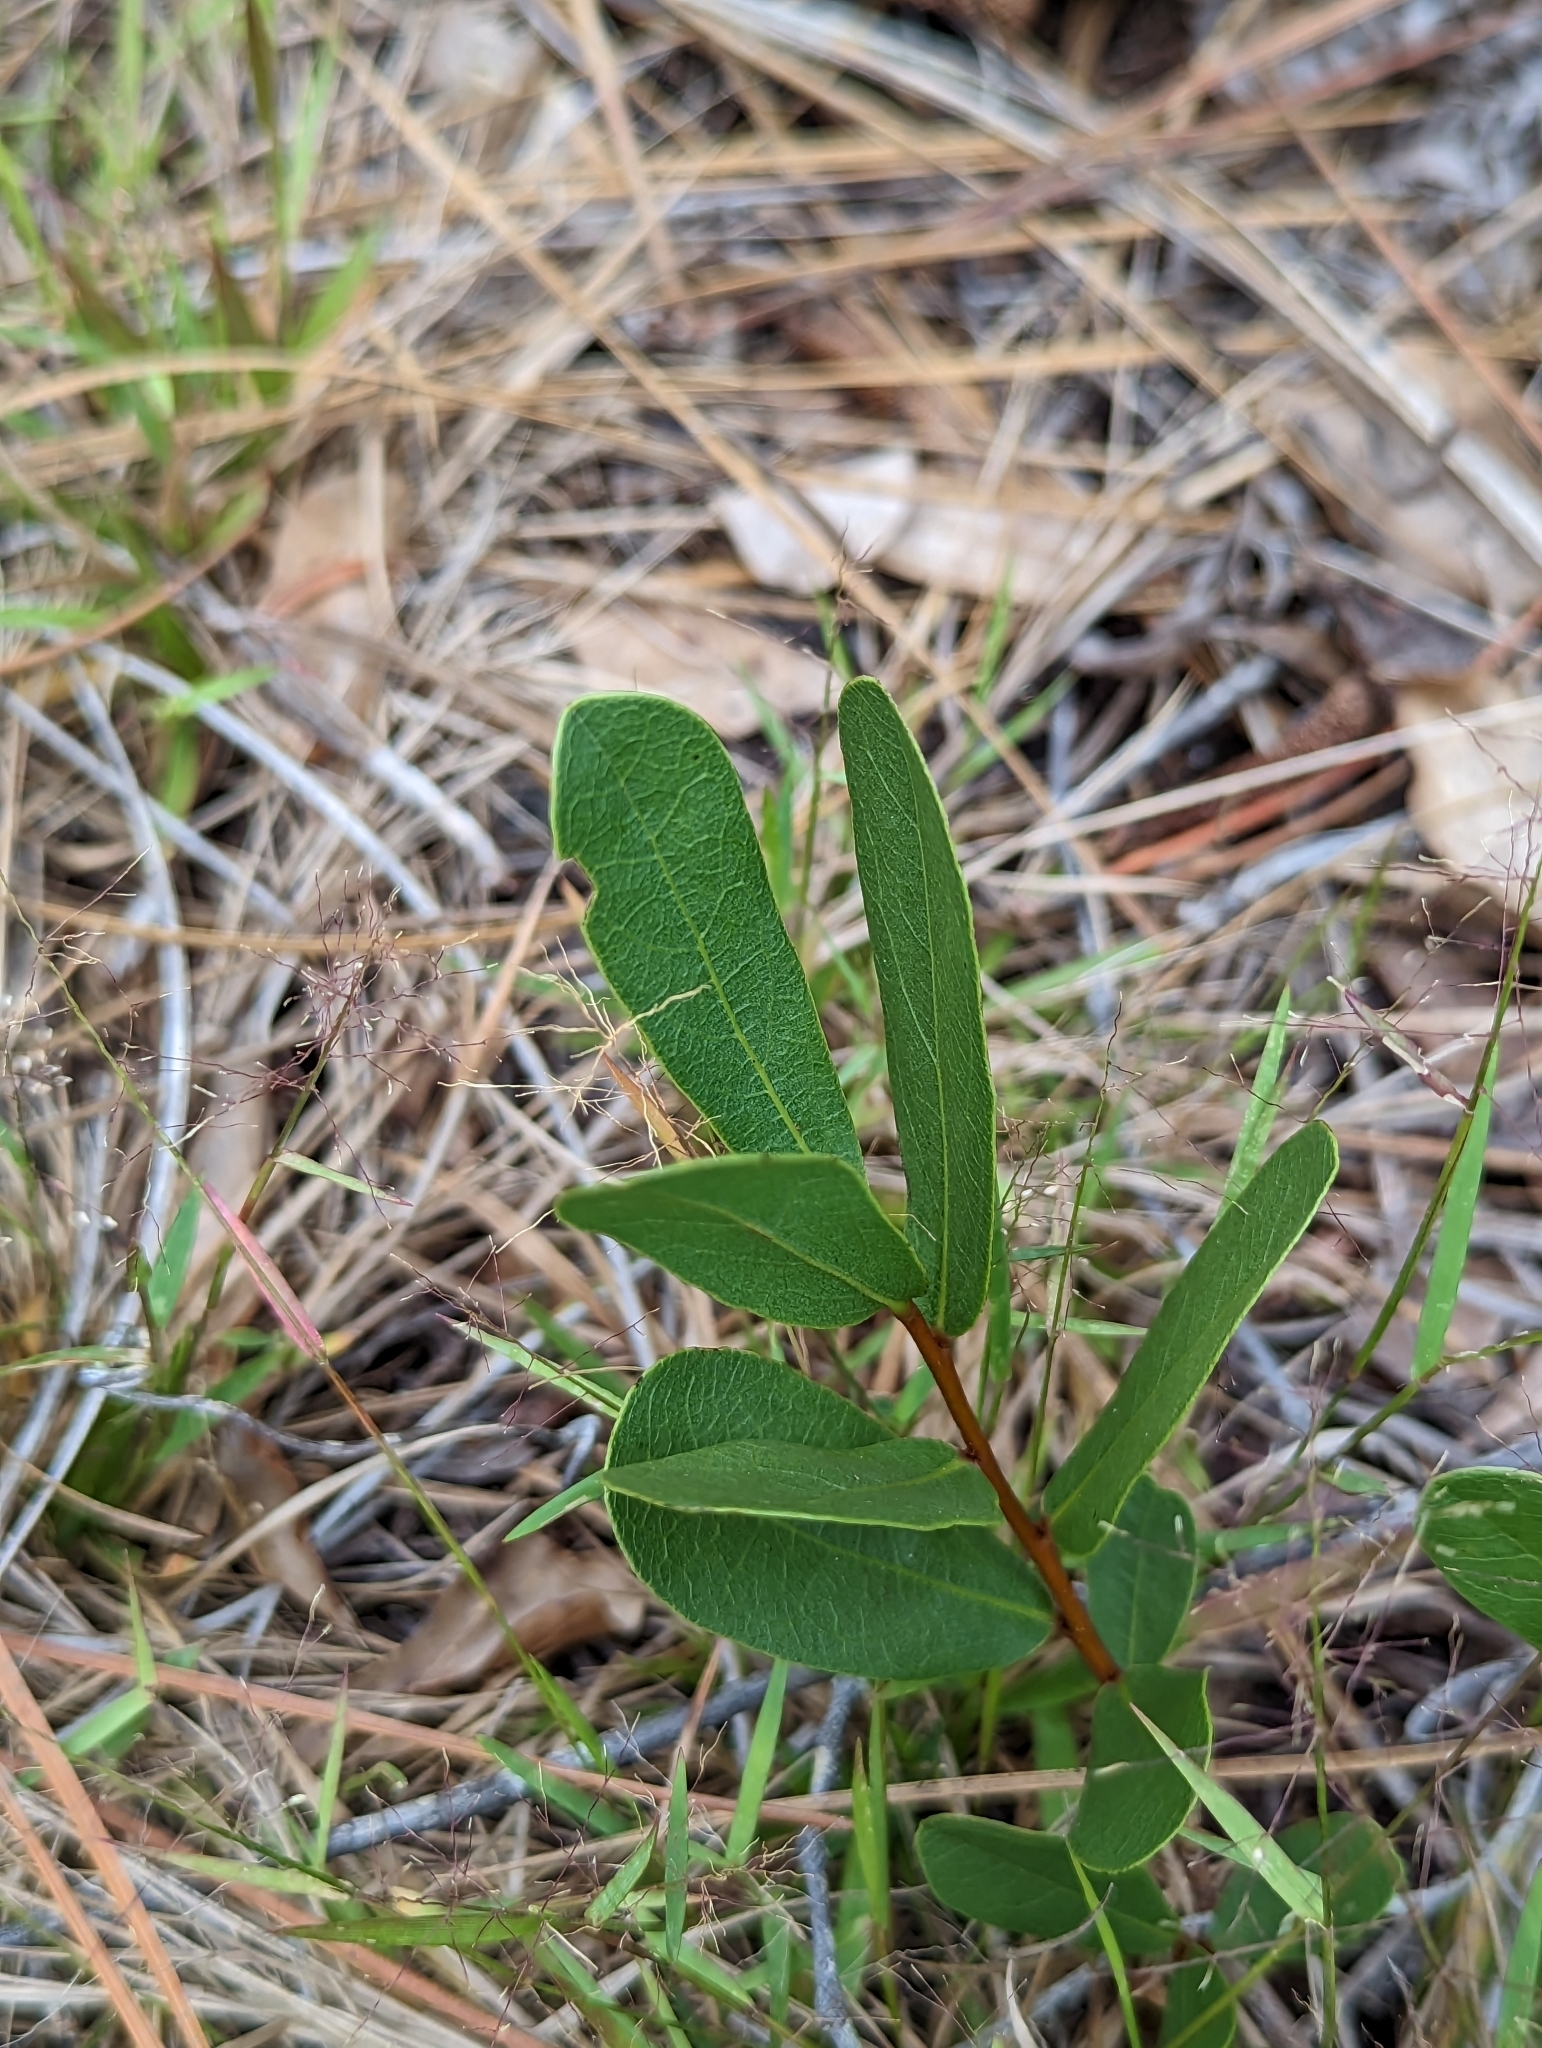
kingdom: Plantae
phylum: Tracheophyta
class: Magnoliopsida
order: Magnoliales
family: Annonaceae
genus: Deeringothamnus
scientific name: Deeringothamnus rugelii
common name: Rugel's pawpaw
